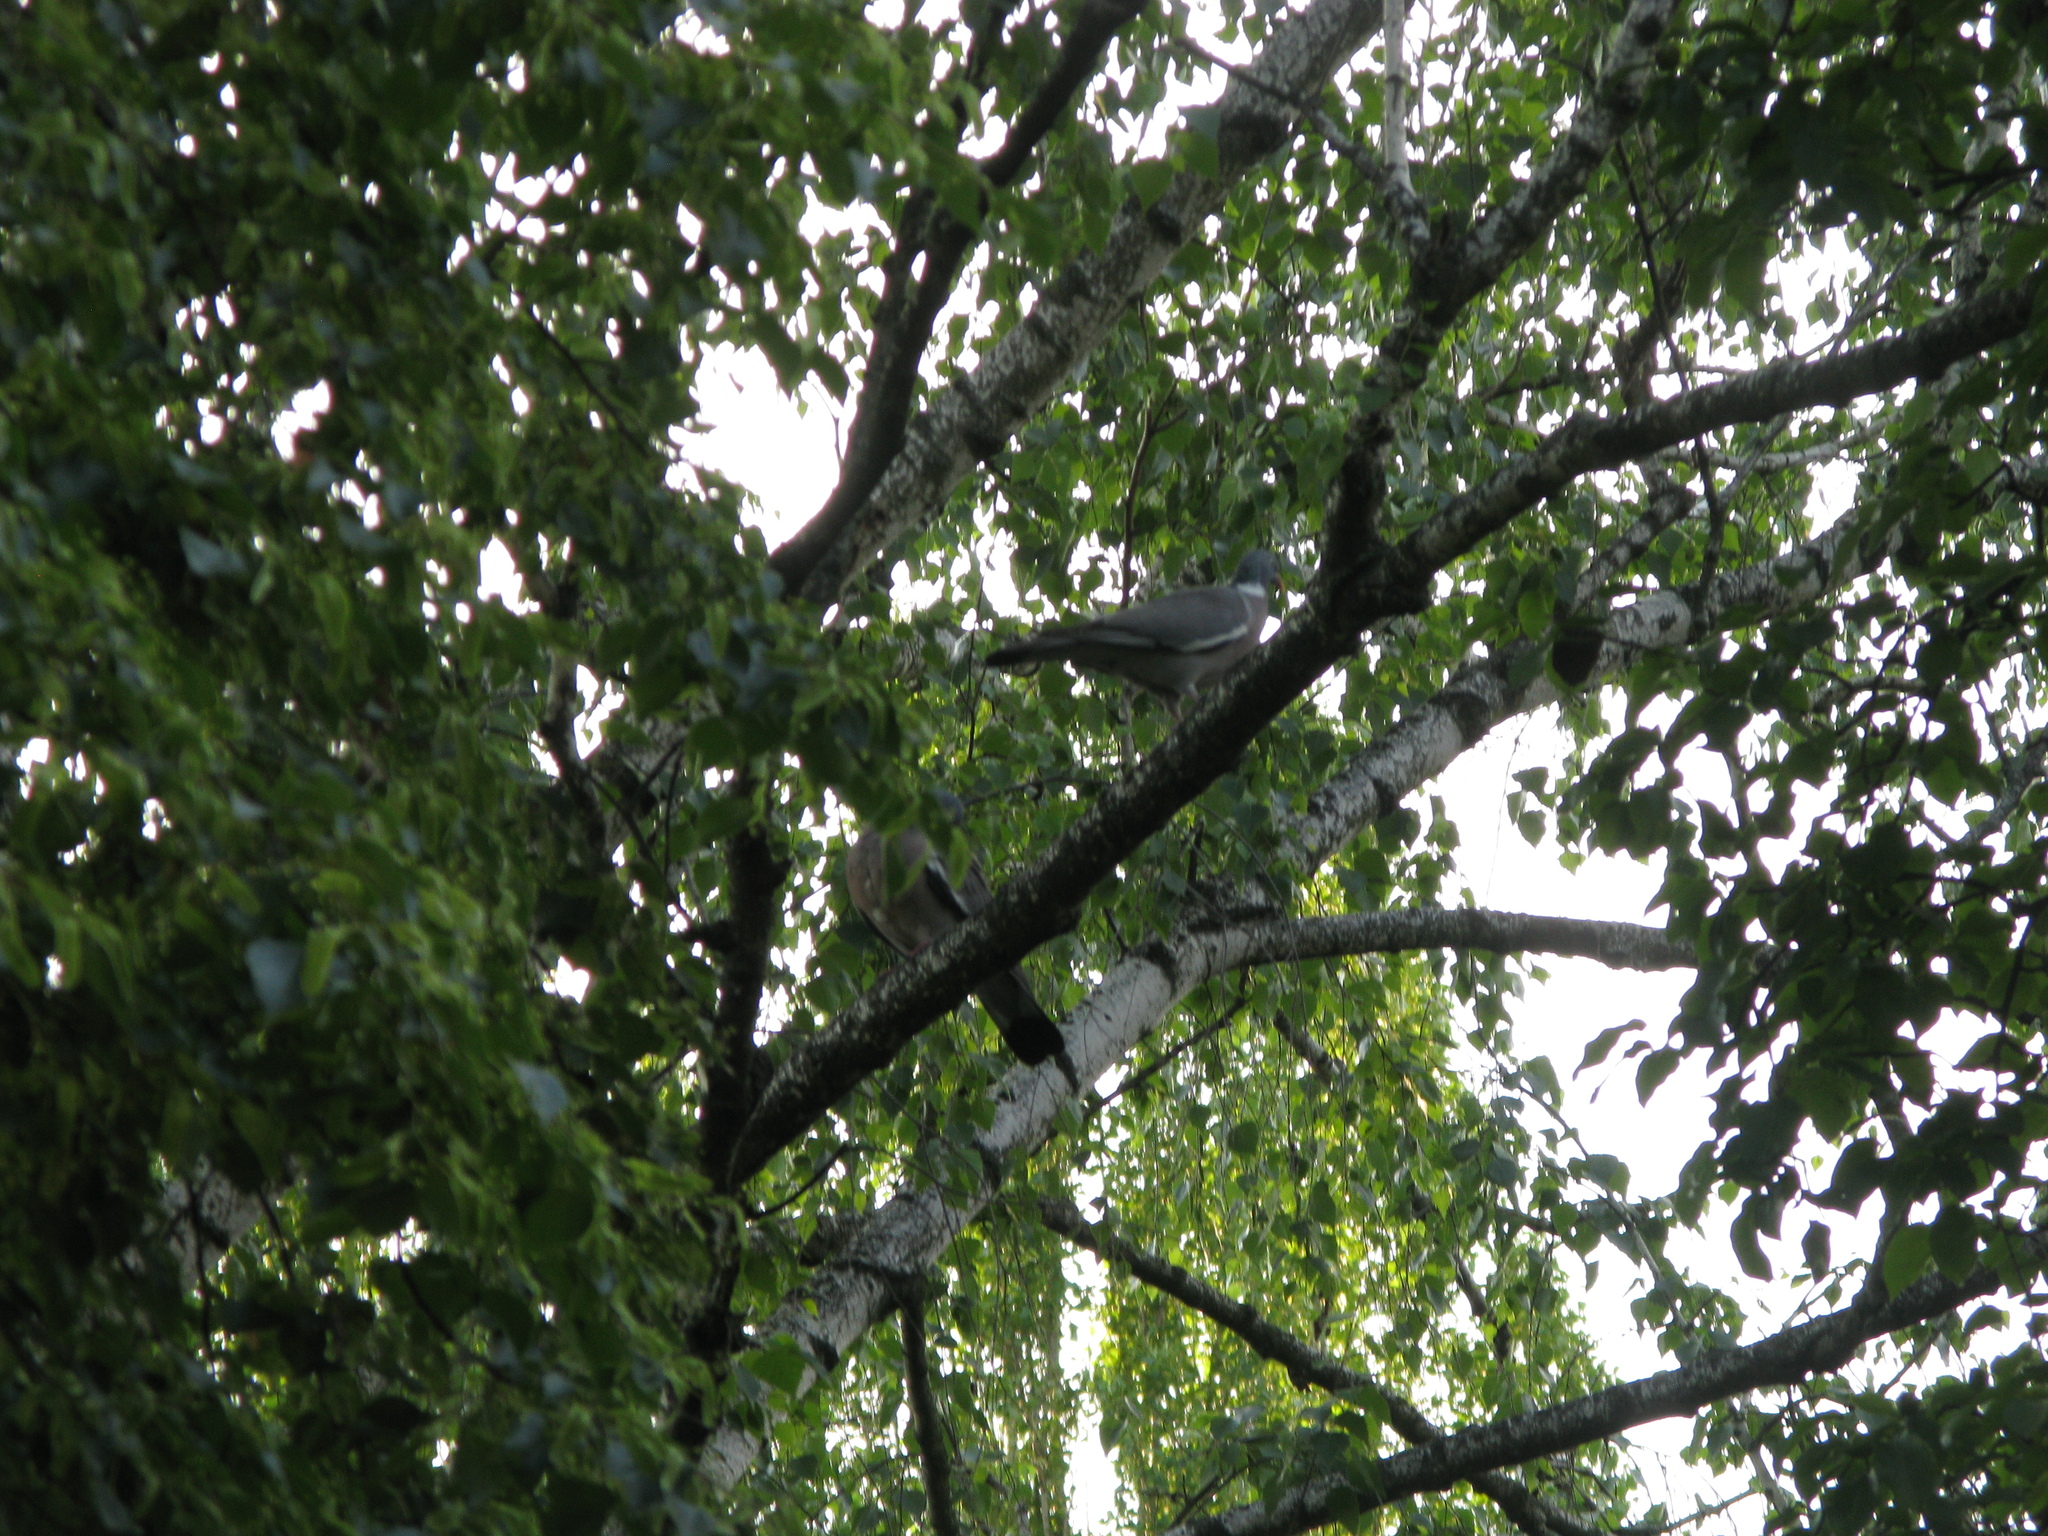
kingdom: Animalia
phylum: Chordata
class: Aves
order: Columbiformes
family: Columbidae
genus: Columba
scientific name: Columba palumbus
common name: Common wood pigeon
